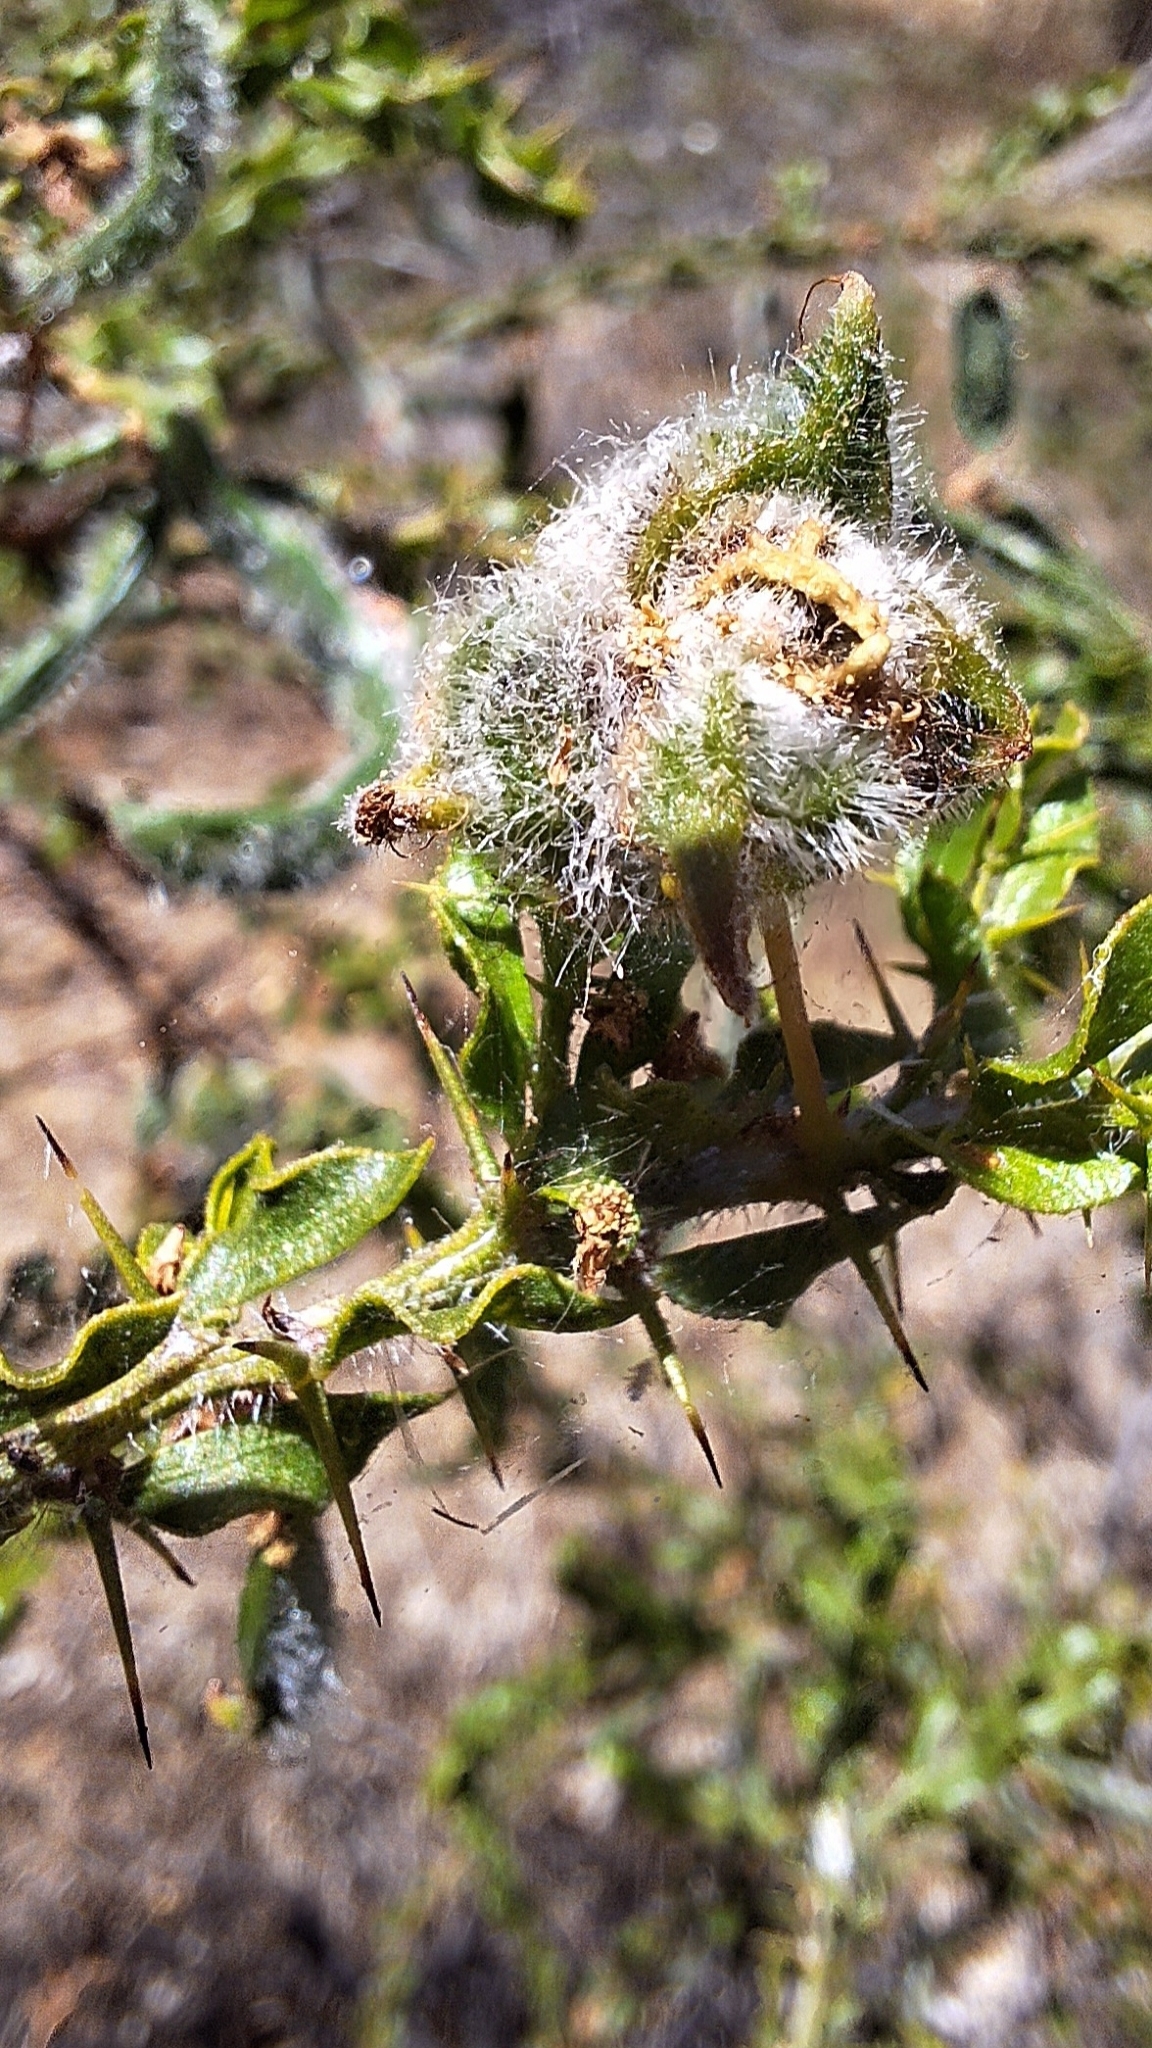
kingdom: Plantae
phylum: Tracheophyta
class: Magnoliopsida
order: Fabales
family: Fabaceae
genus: Acacia
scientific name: Acacia paradoxa
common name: Paradox acacia
